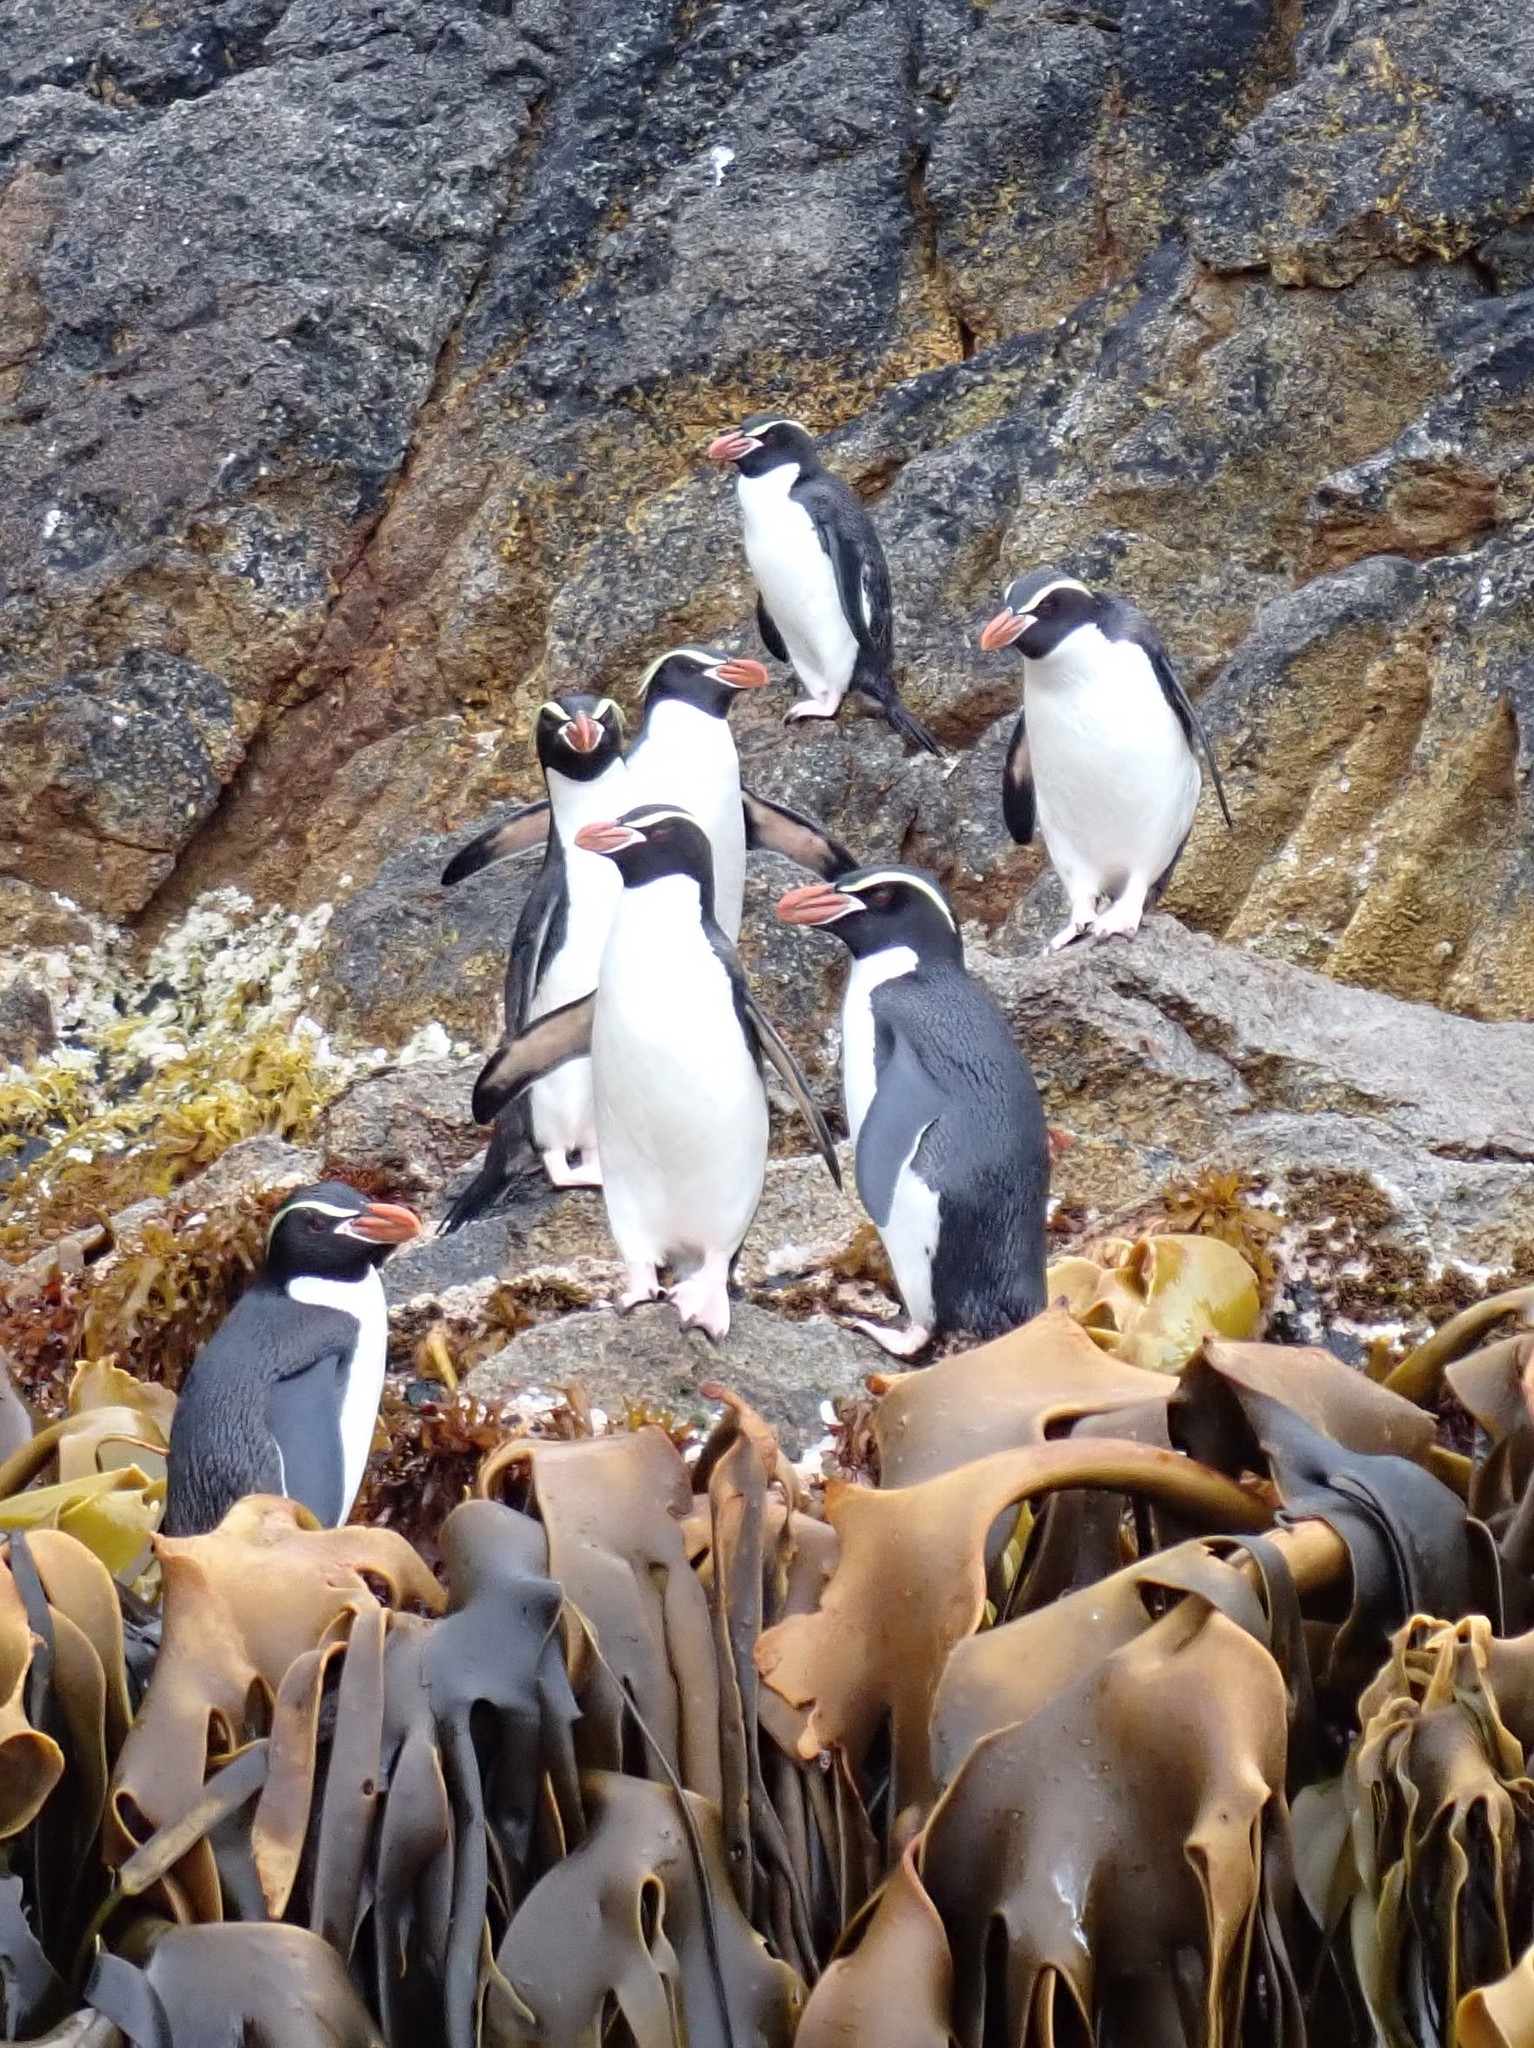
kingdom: Animalia
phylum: Chordata
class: Aves
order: Sphenisciformes
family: Spheniscidae
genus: Eudyptes
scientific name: Eudyptes robustus
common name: Snares penguin
